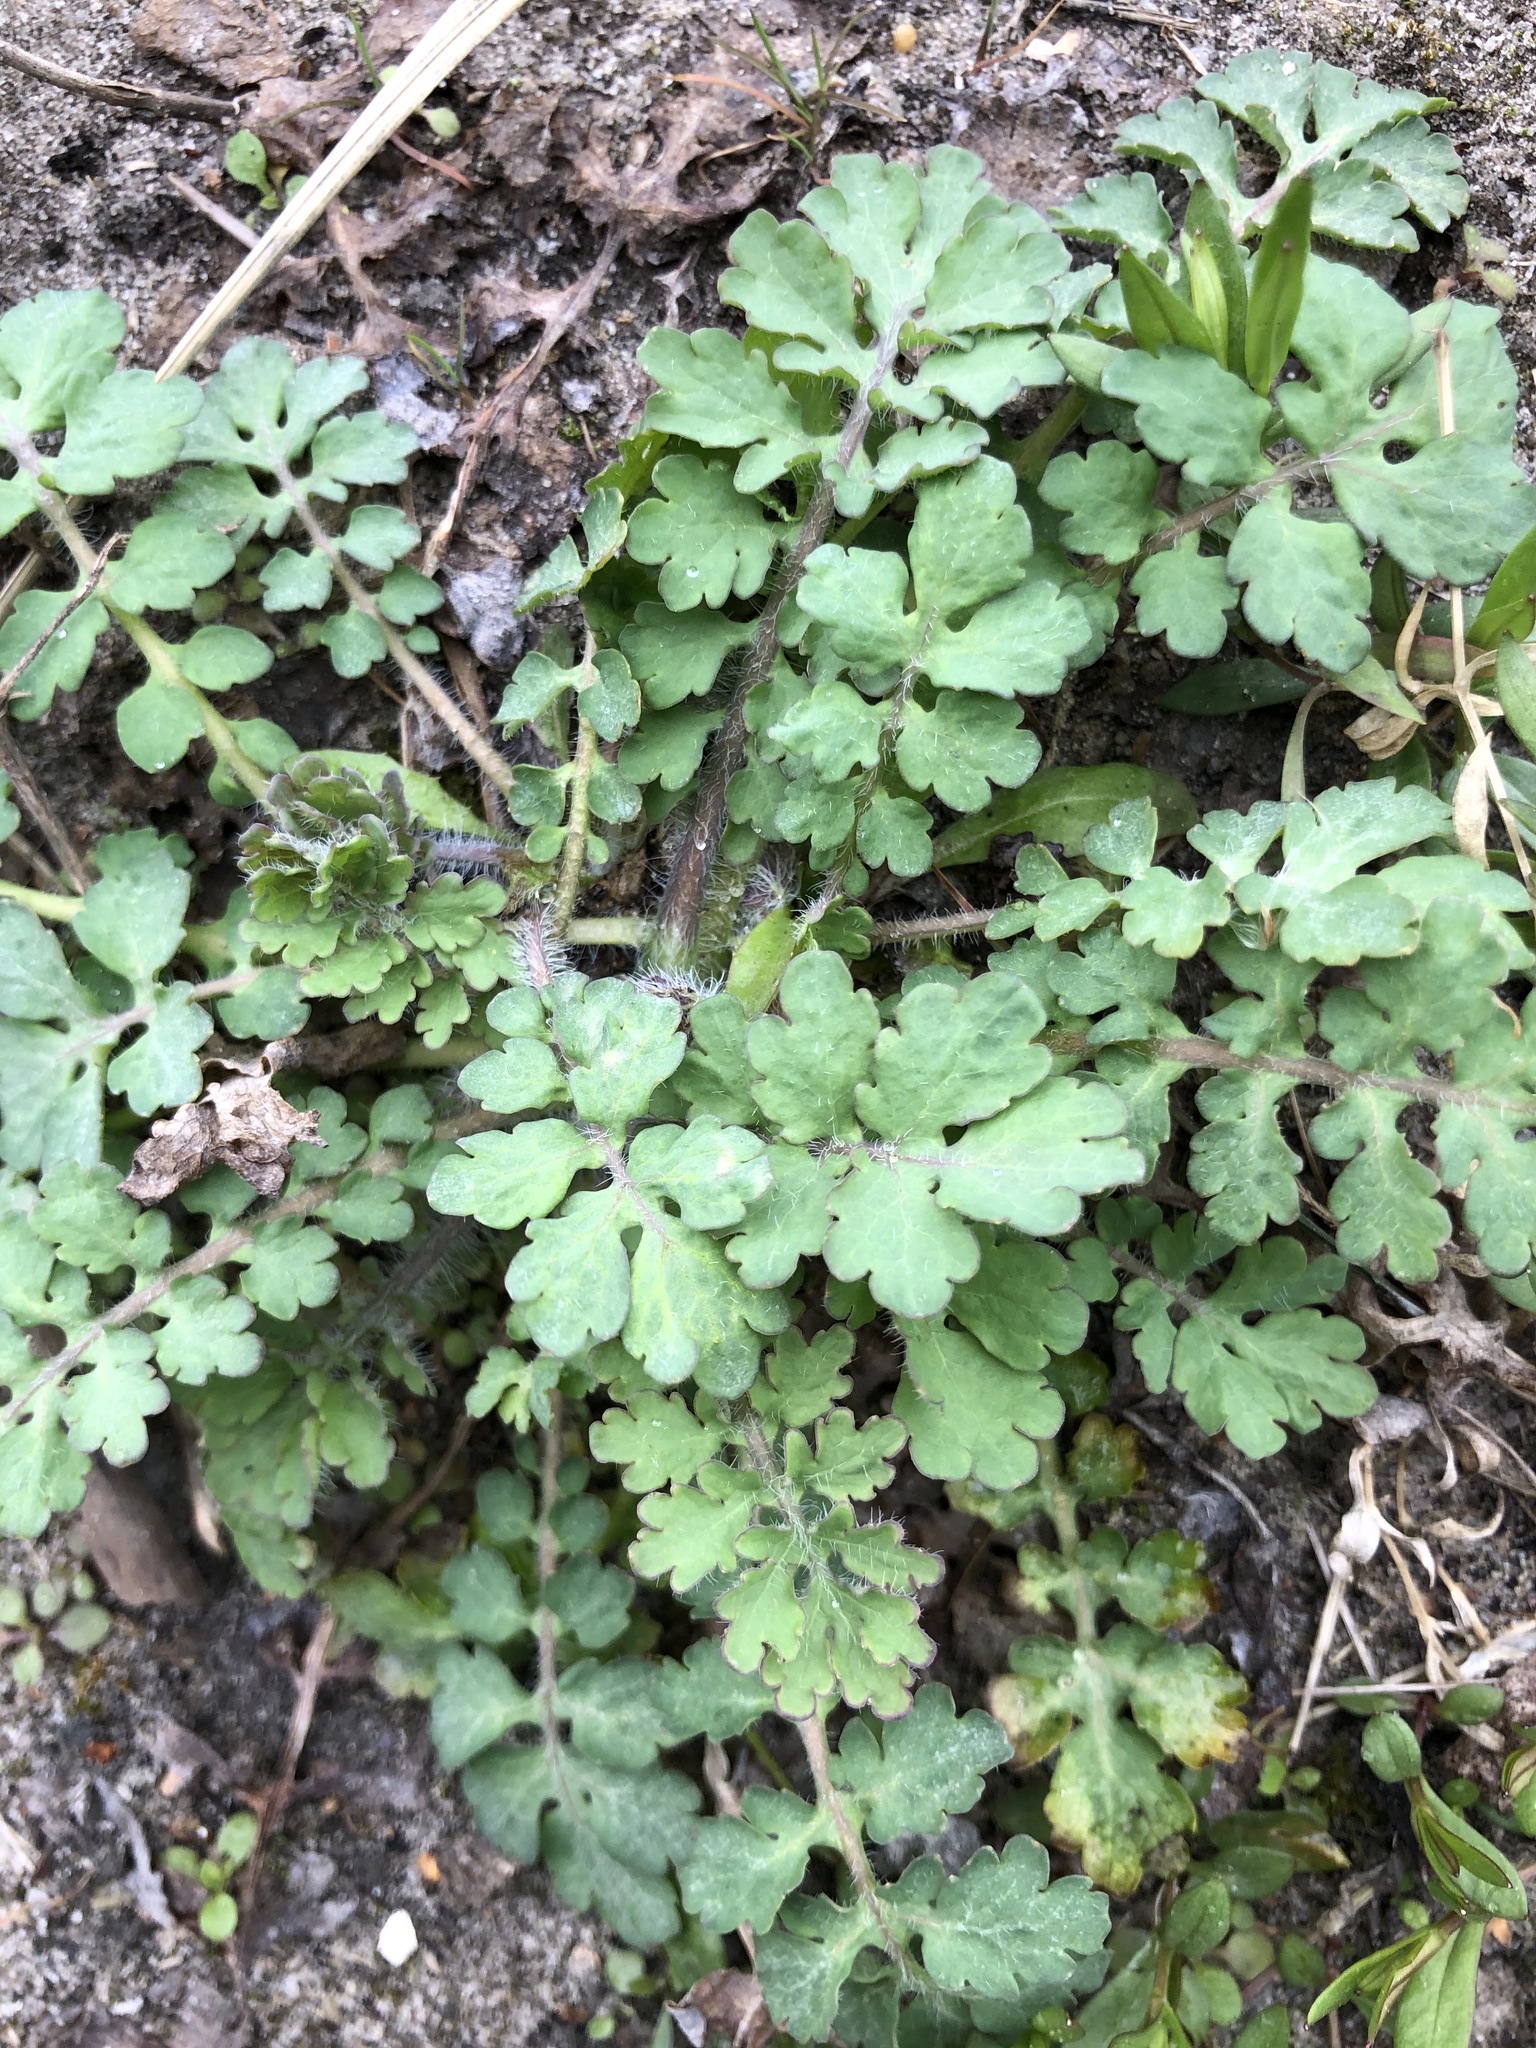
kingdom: Plantae
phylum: Tracheophyta
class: Magnoliopsida
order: Ranunculales
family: Papaveraceae
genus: Chelidonium
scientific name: Chelidonium majus
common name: Greater celandine
